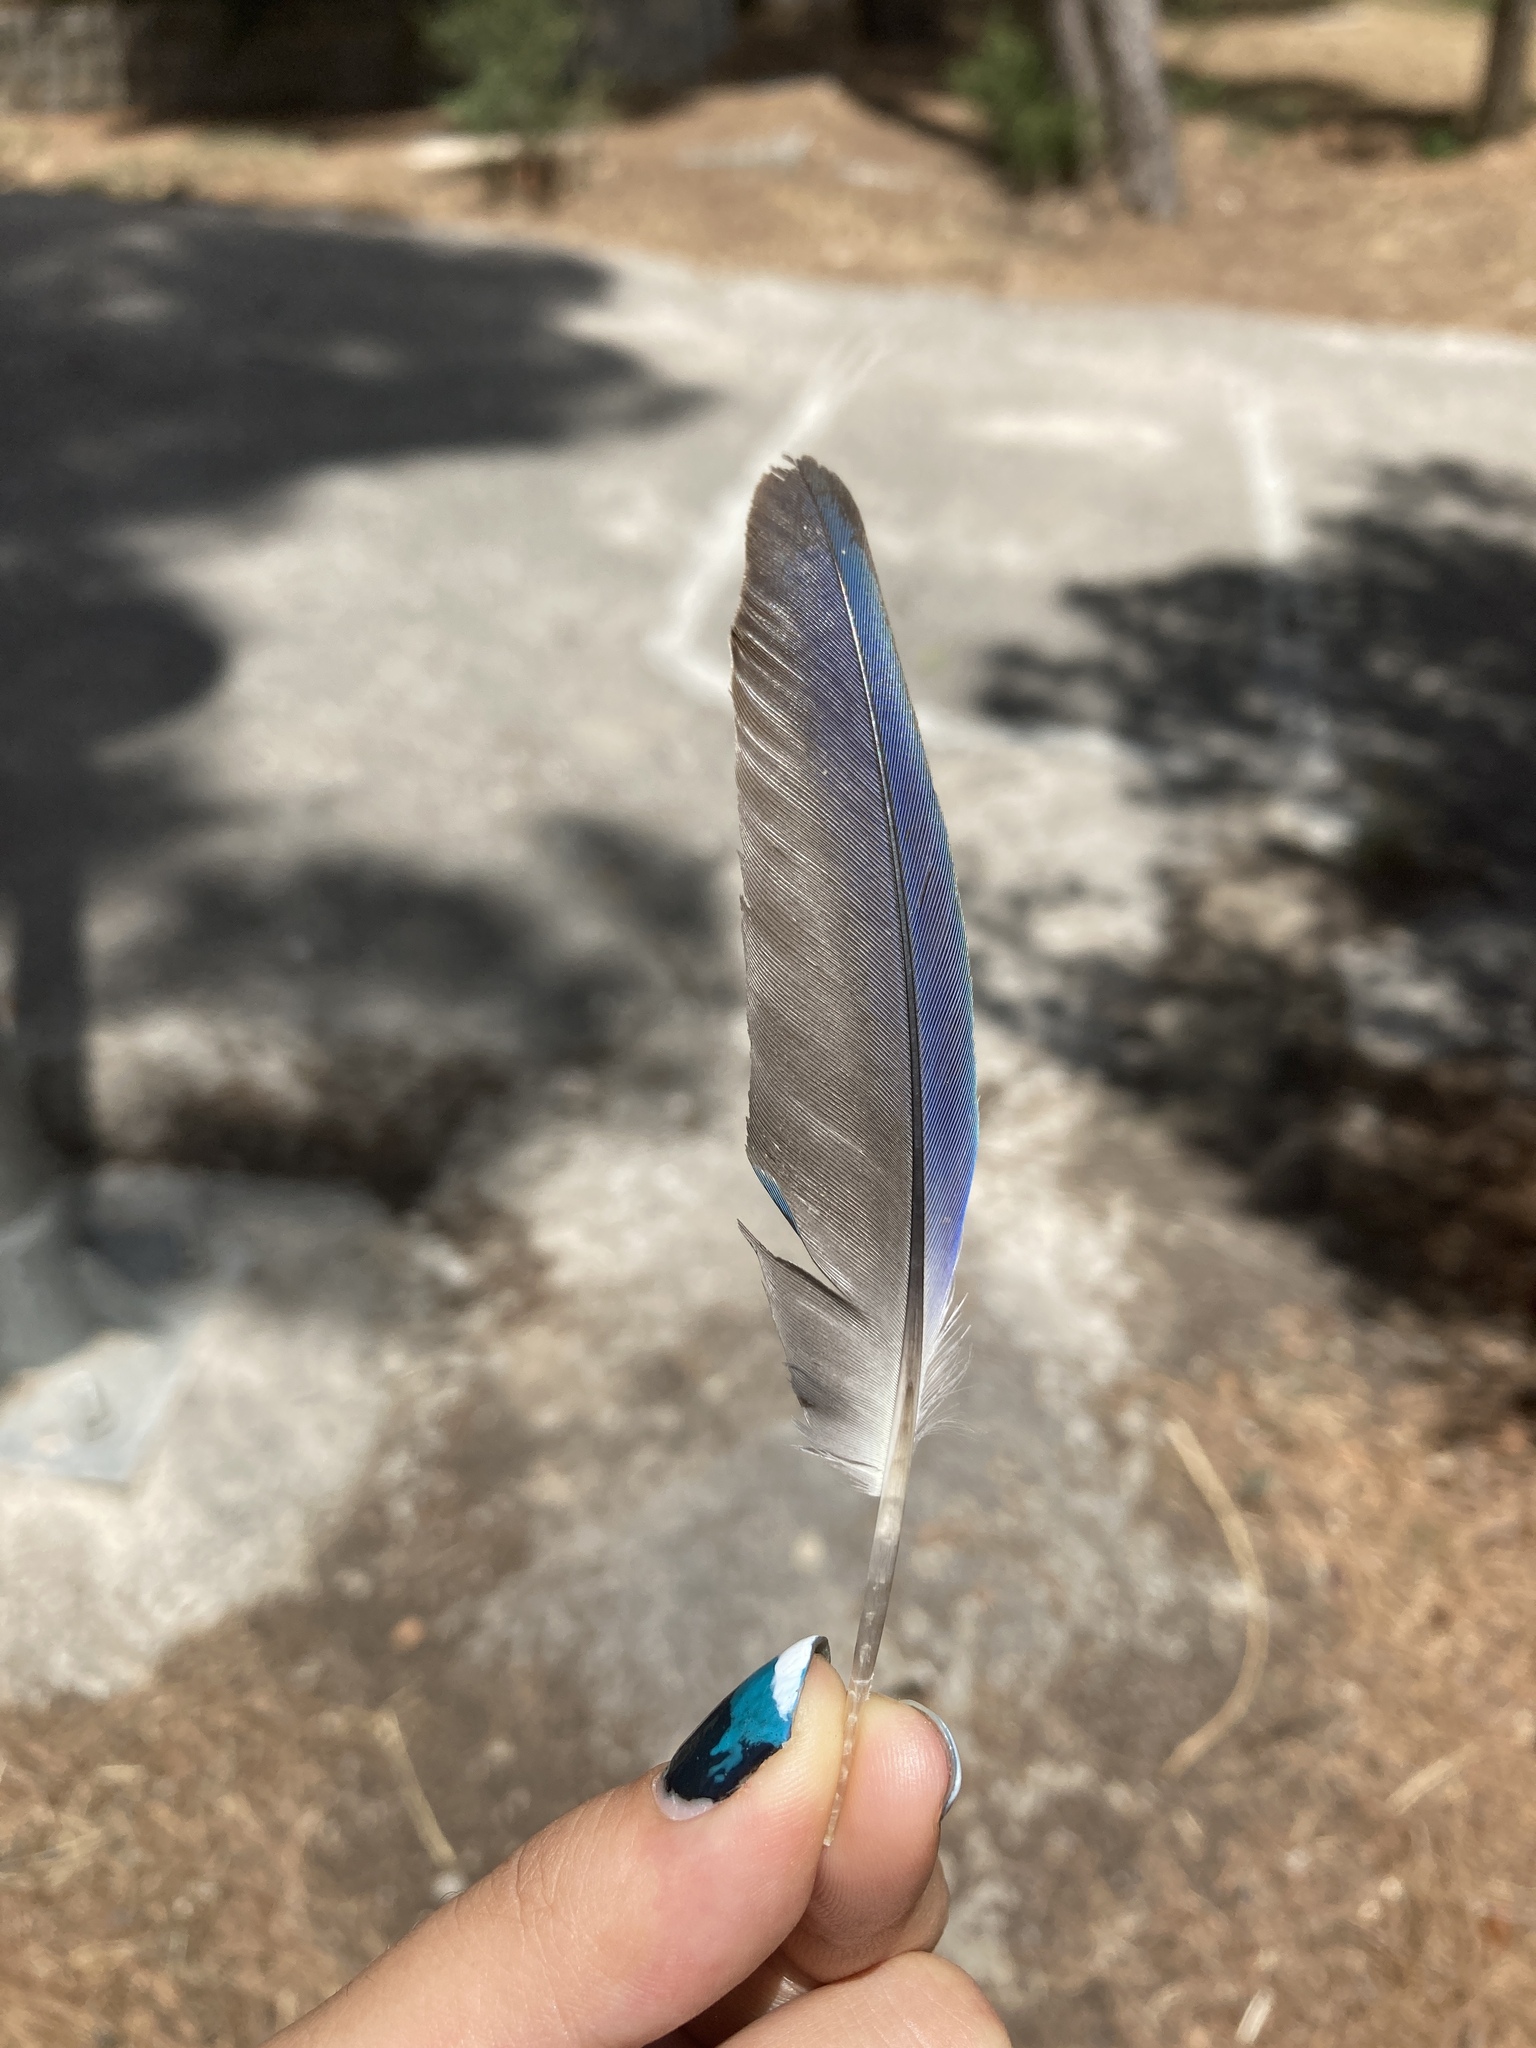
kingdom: Animalia
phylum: Chordata
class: Aves
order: Psittaciformes
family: Psittacidae
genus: Myiopsitta
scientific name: Myiopsitta monachus
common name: Monk parakeet
